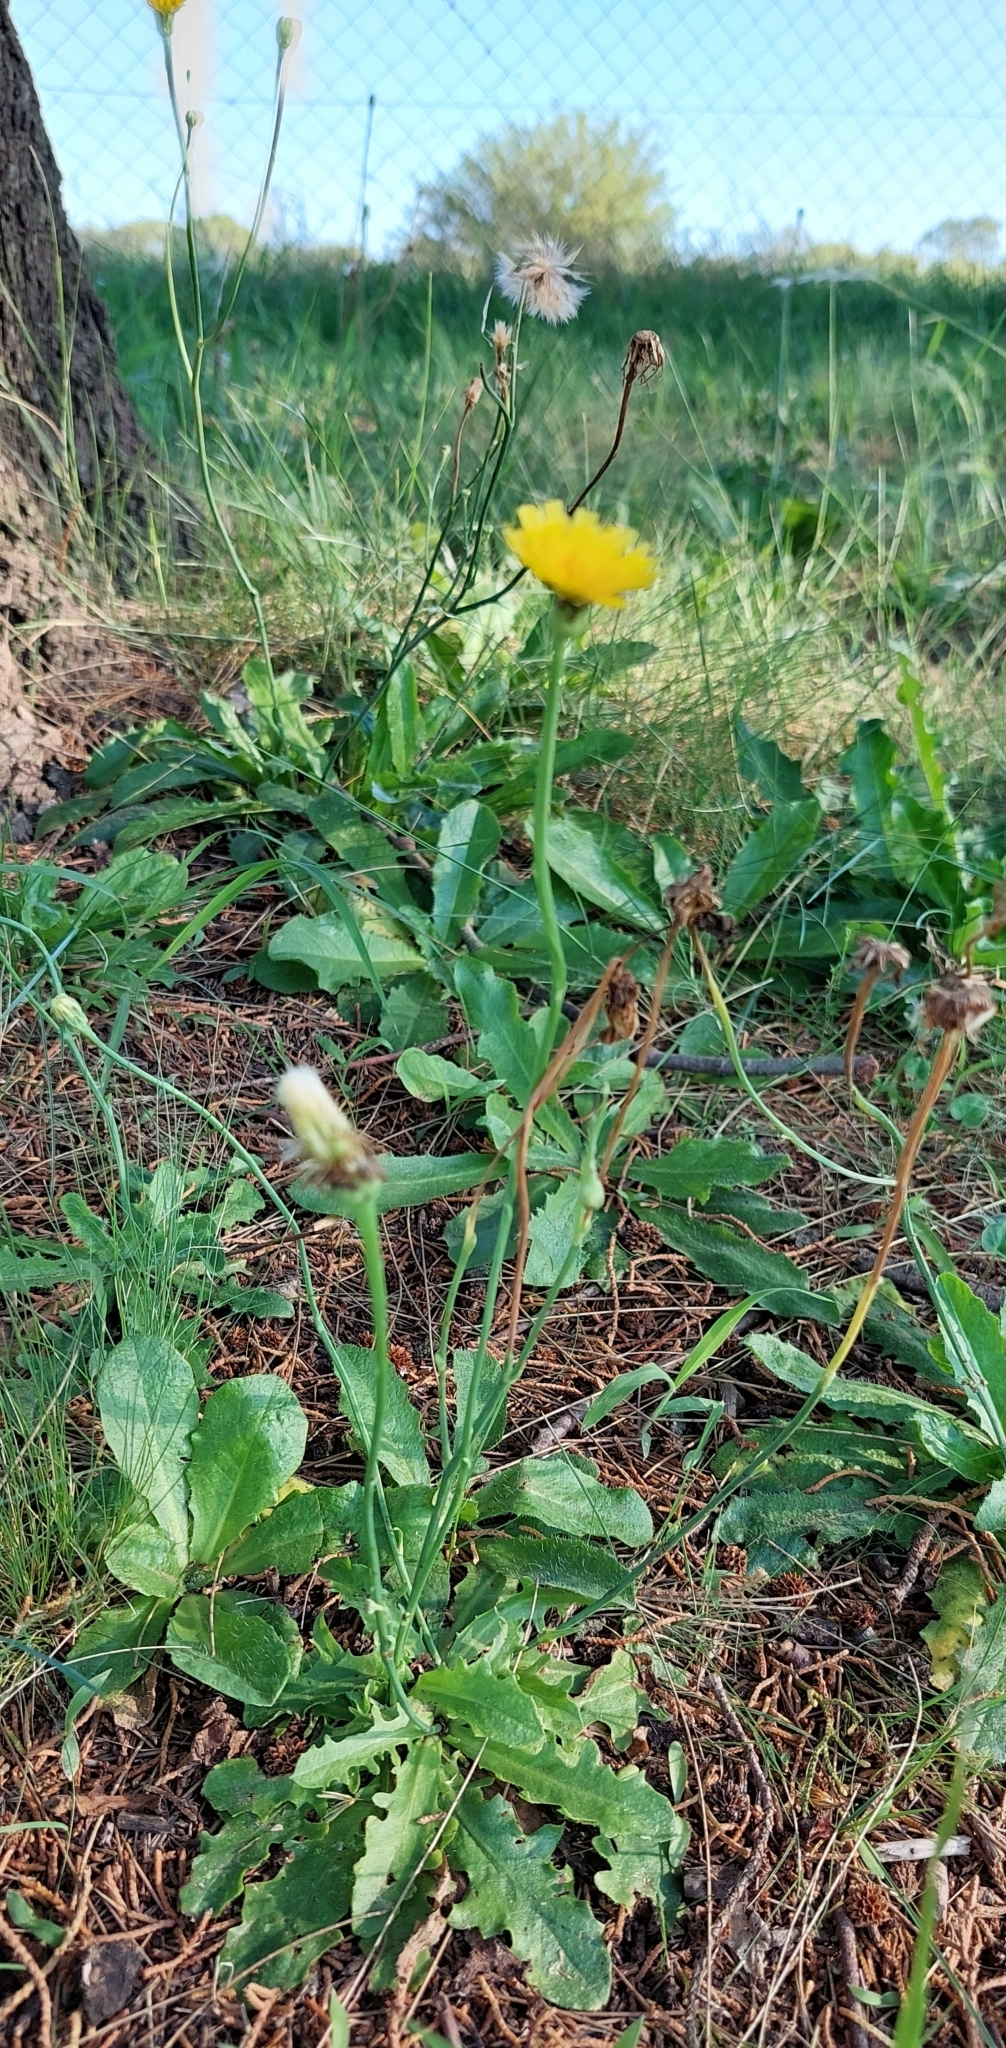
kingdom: Plantae
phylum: Tracheophyta
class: Magnoliopsida
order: Asterales
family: Asteraceae
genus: Hypochaeris
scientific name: Hypochaeris radicata
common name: Flatweed
